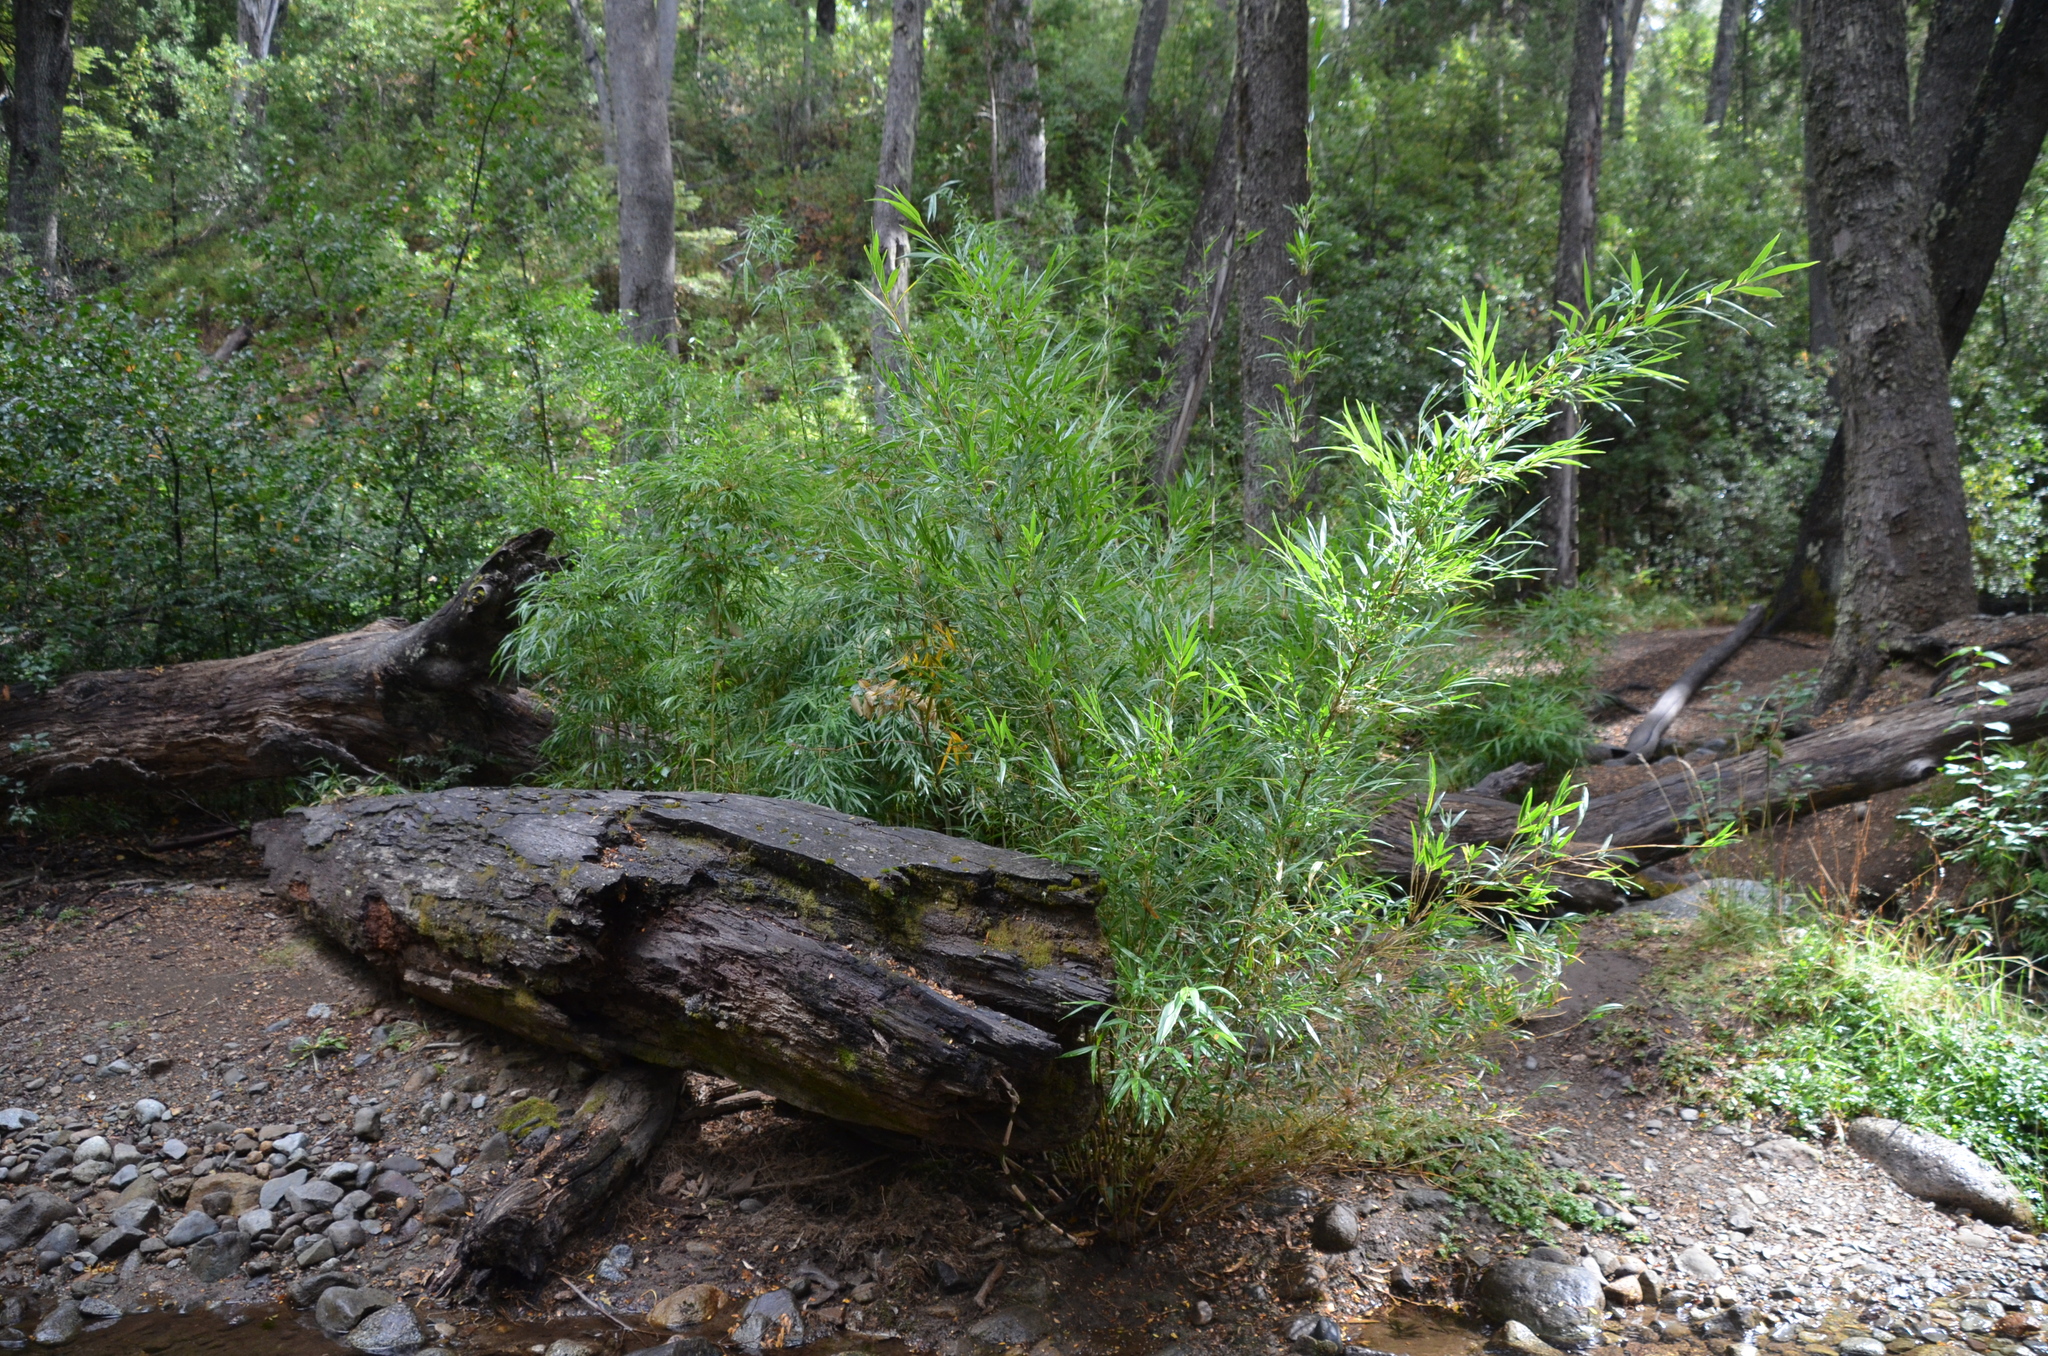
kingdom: Plantae
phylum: Tracheophyta
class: Liliopsida
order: Poales
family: Poaceae
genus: Chusquea
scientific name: Chusquea culeou
